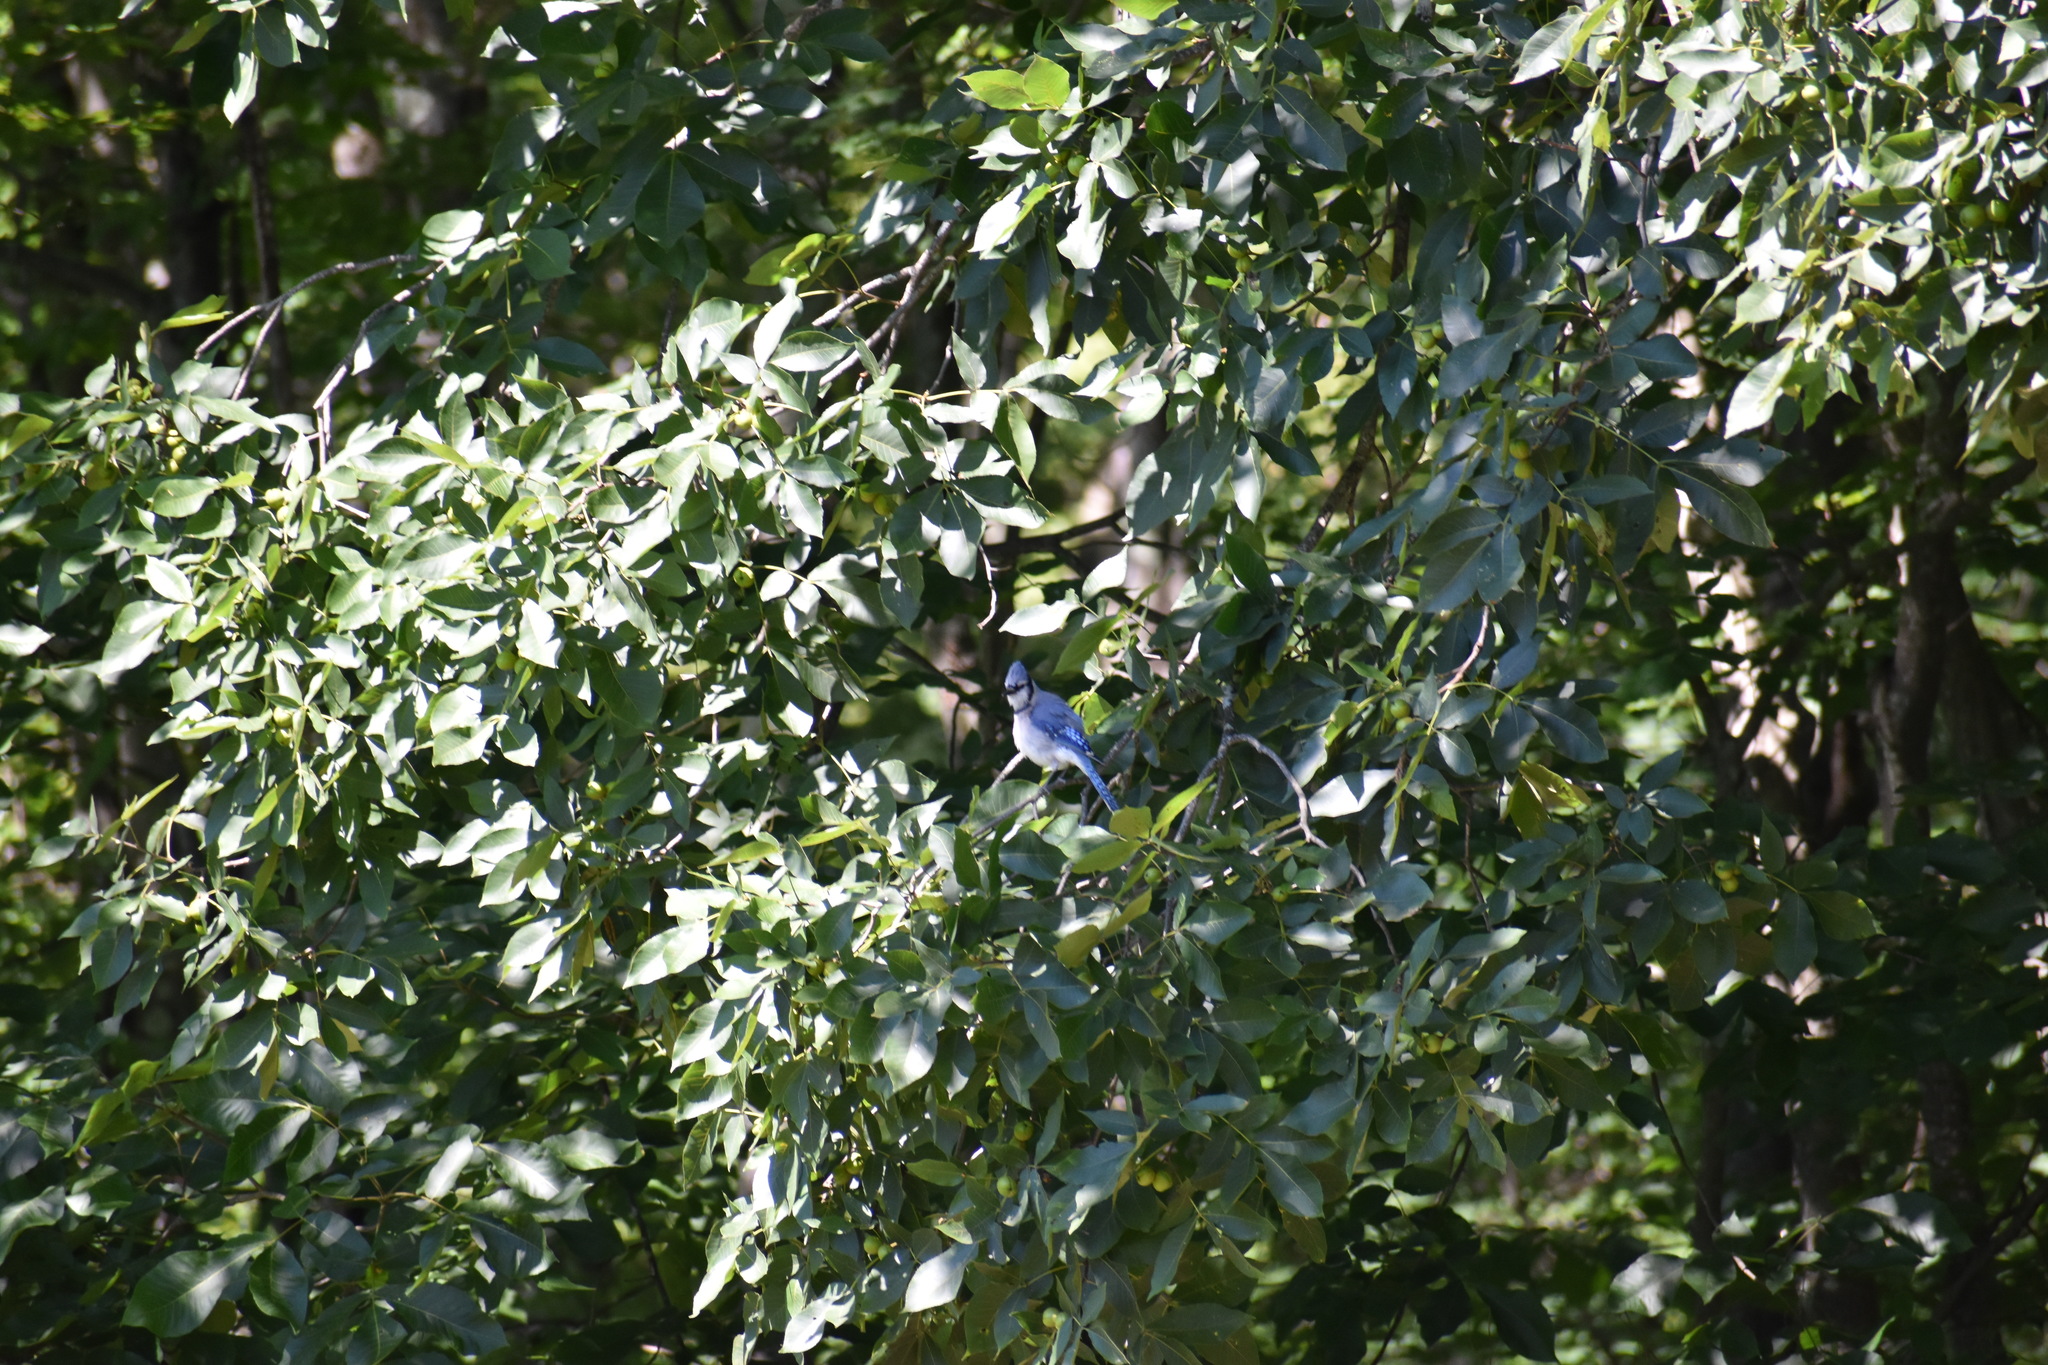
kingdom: Animalia
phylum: Chordata
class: Aves
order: Passeriformes
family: Corvidae
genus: Cyanocitta
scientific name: Cyanocitta cristata
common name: Blue jay
